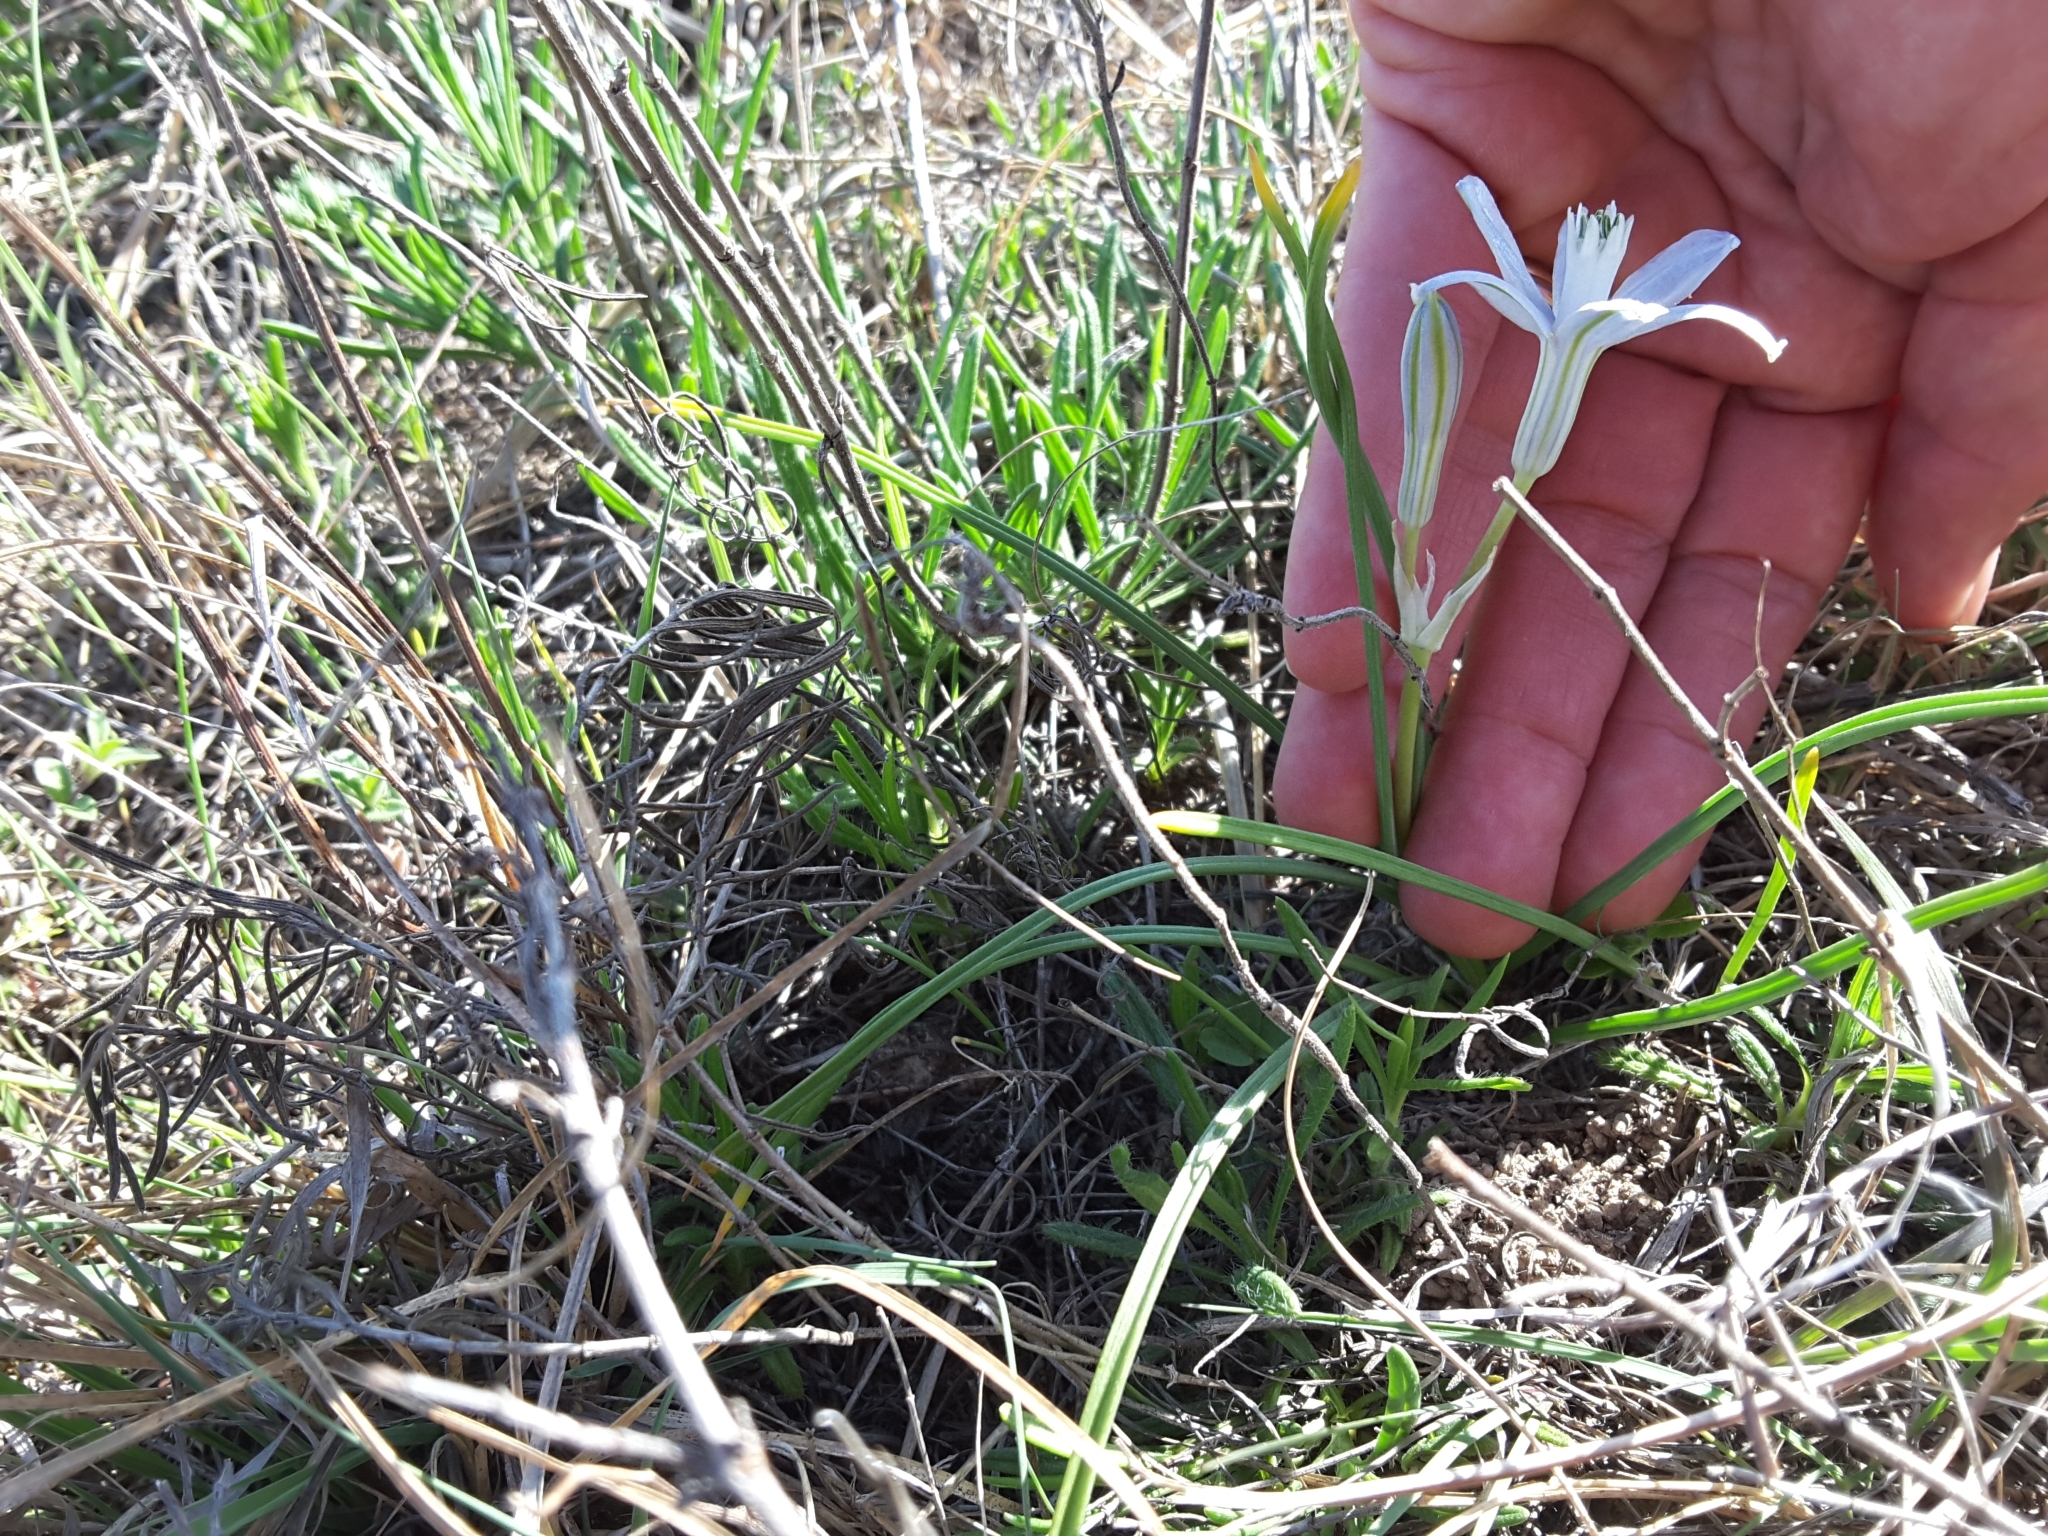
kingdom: Plantae
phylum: Tracheophyta
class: Liliopsida
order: Asparagales
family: Asparagaceae
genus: Androstephium
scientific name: Androstephium coeruleum
